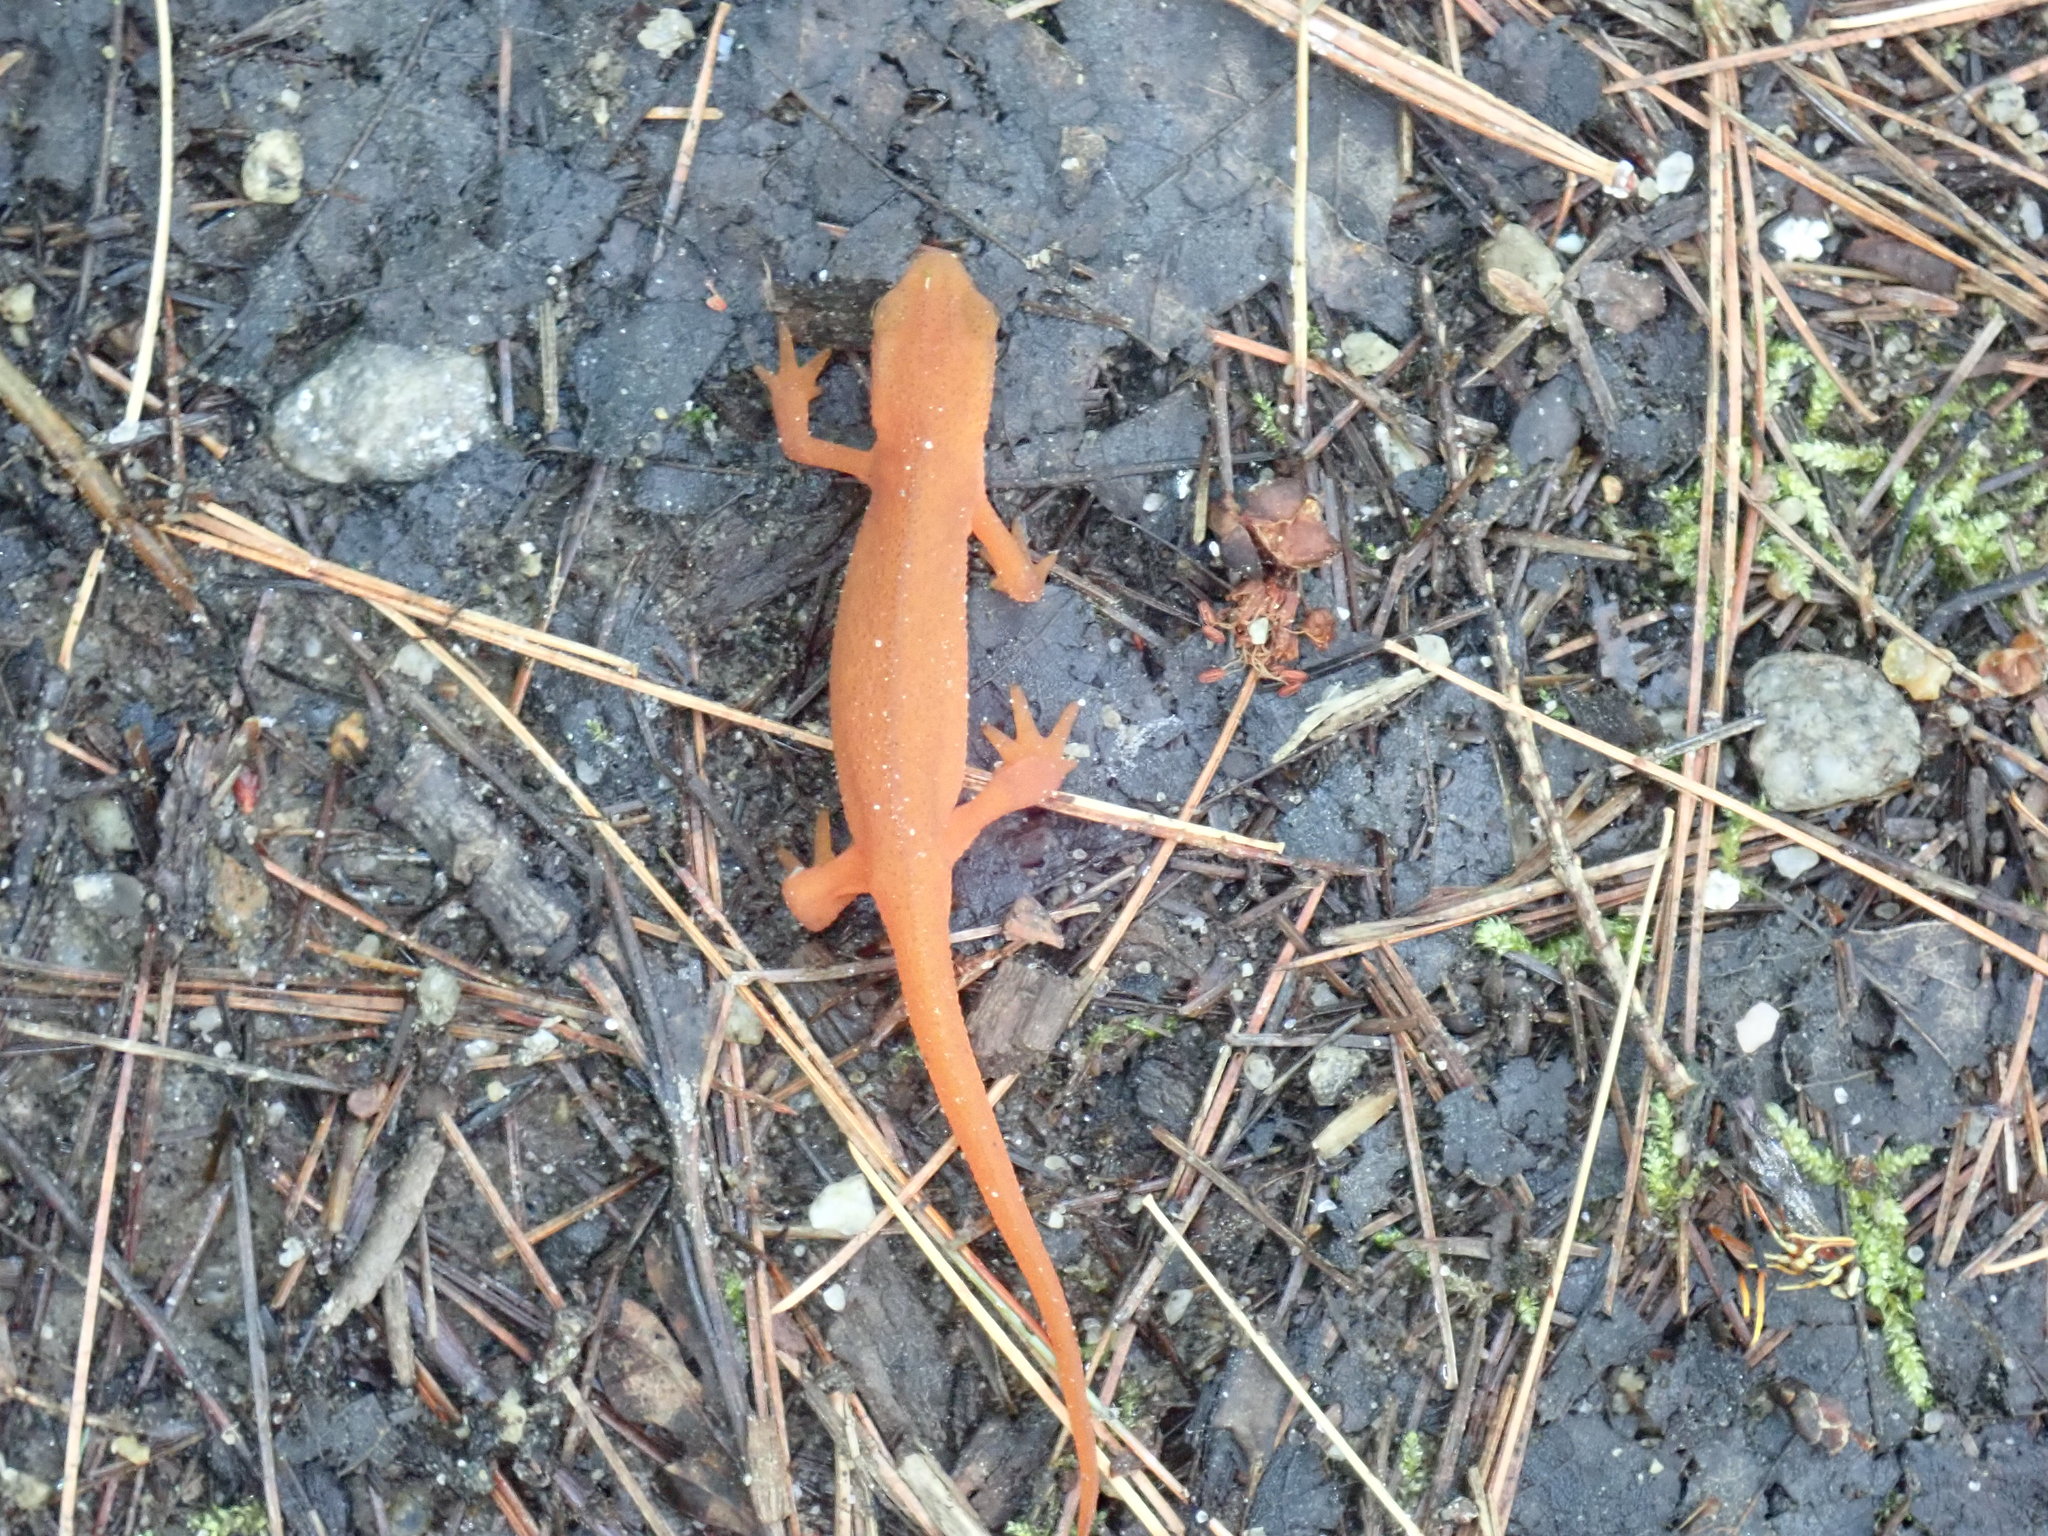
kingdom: Animalia
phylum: Chordata
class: Amphibia
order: Caudata
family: Salamandridae
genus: Notophthalmus
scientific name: Notophthalmus viridescens
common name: Eastern newt
